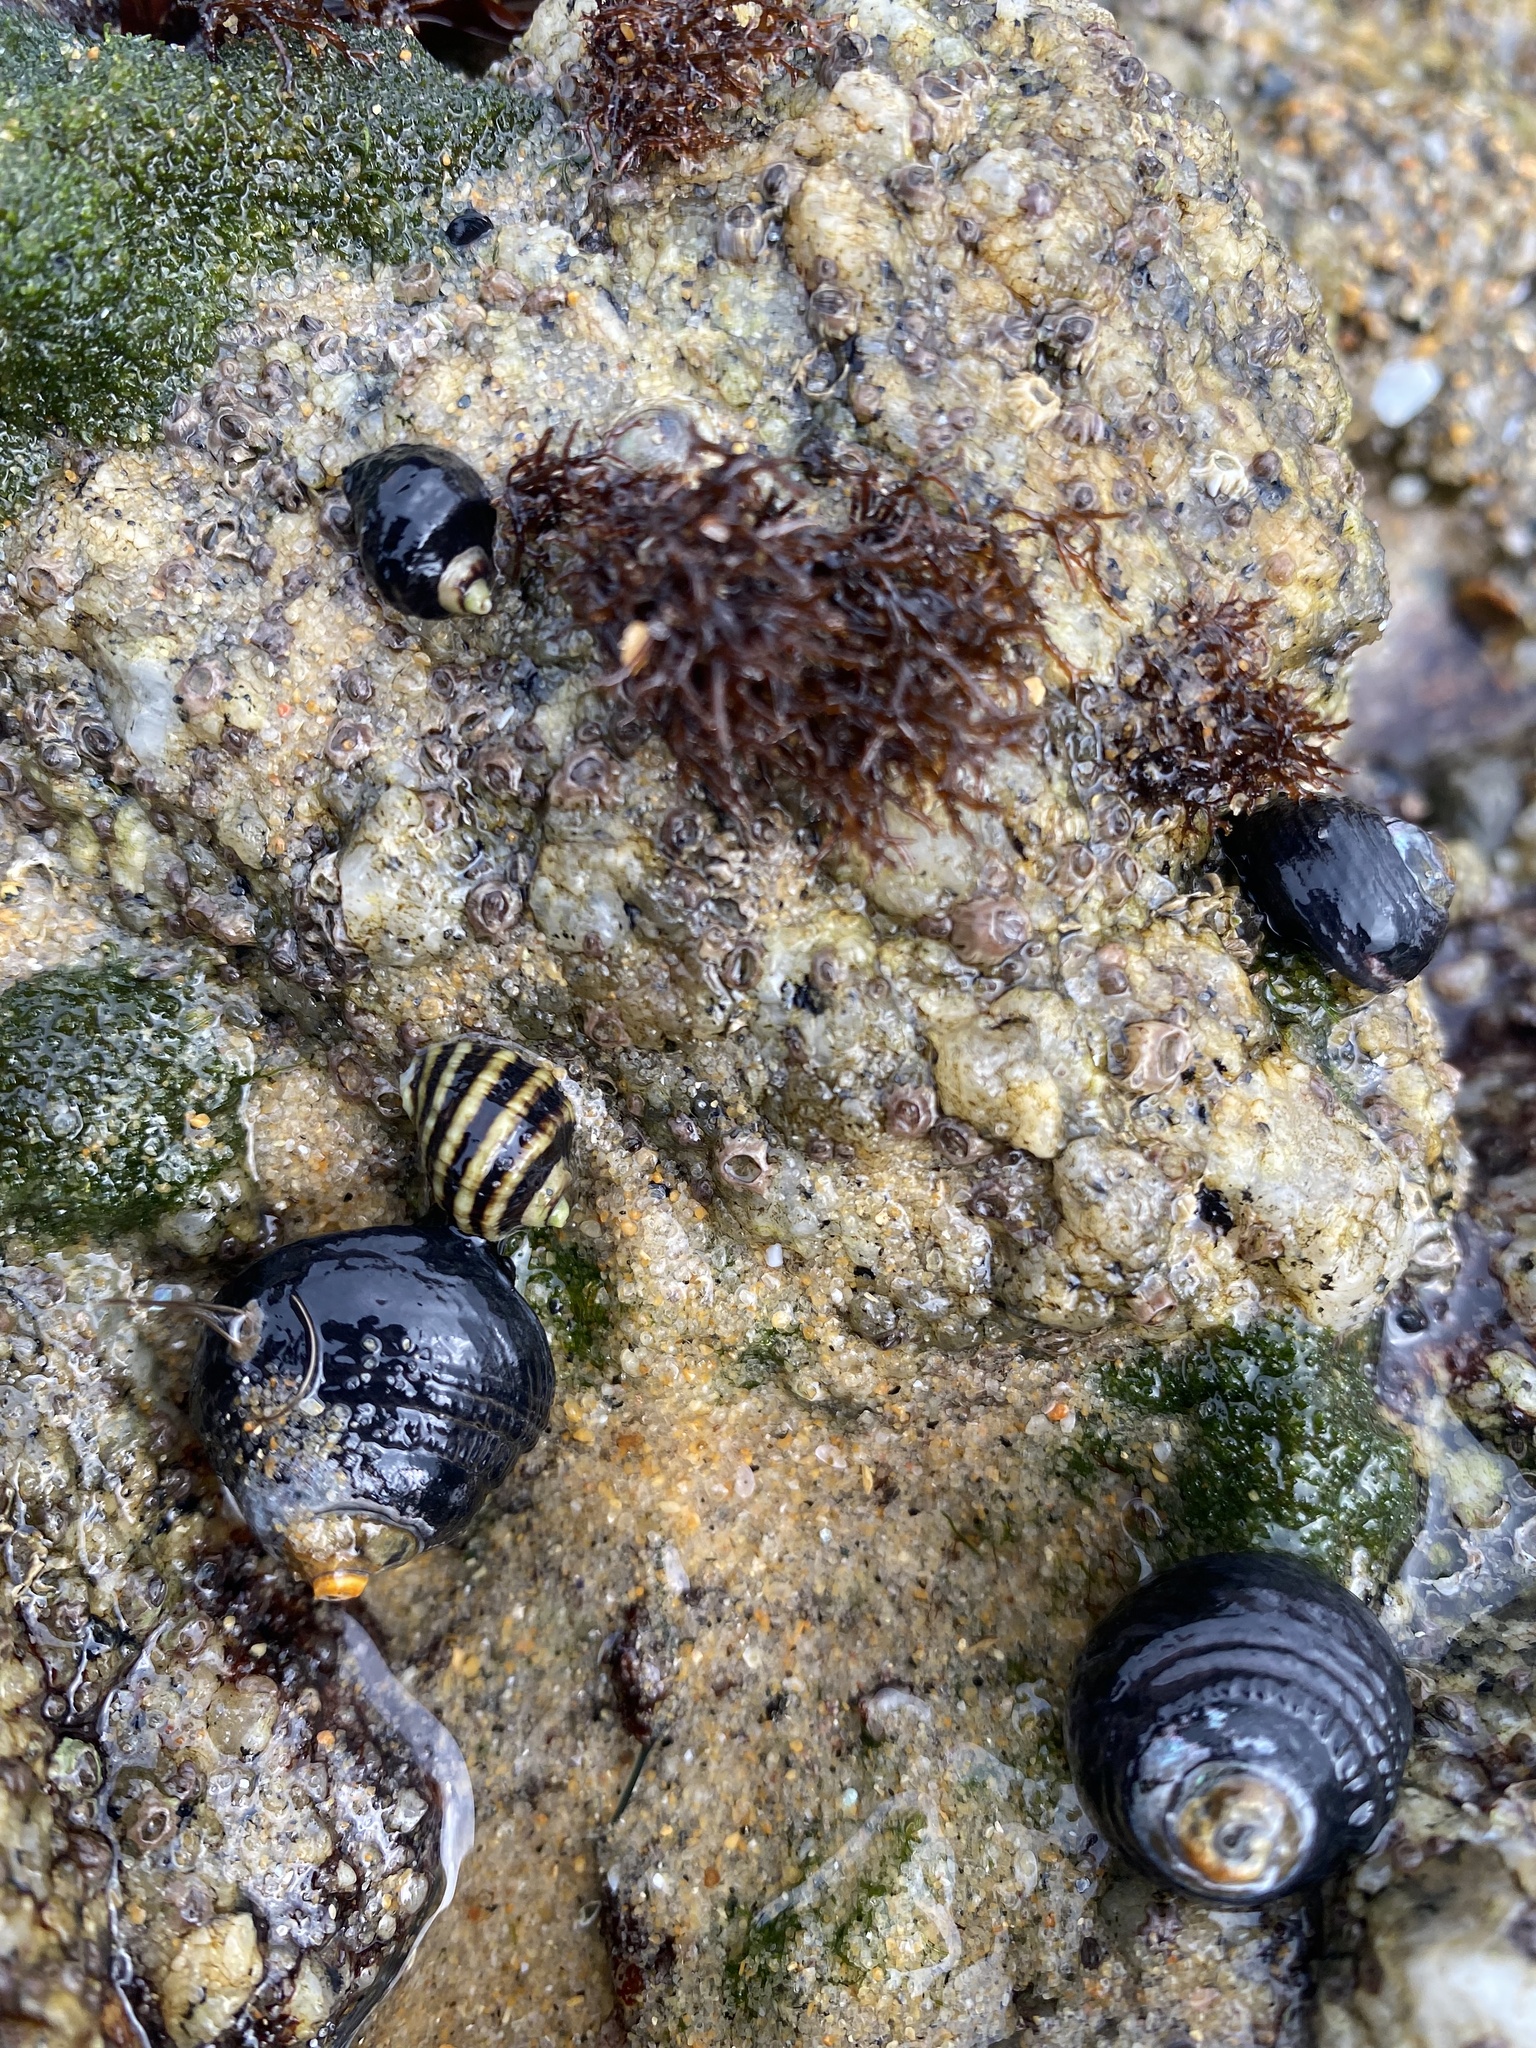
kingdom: Animalia
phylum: Mollusca
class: Gastropoda
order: Neogastropoda
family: Muricidae
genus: Nucella
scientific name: Nucella ostrina
